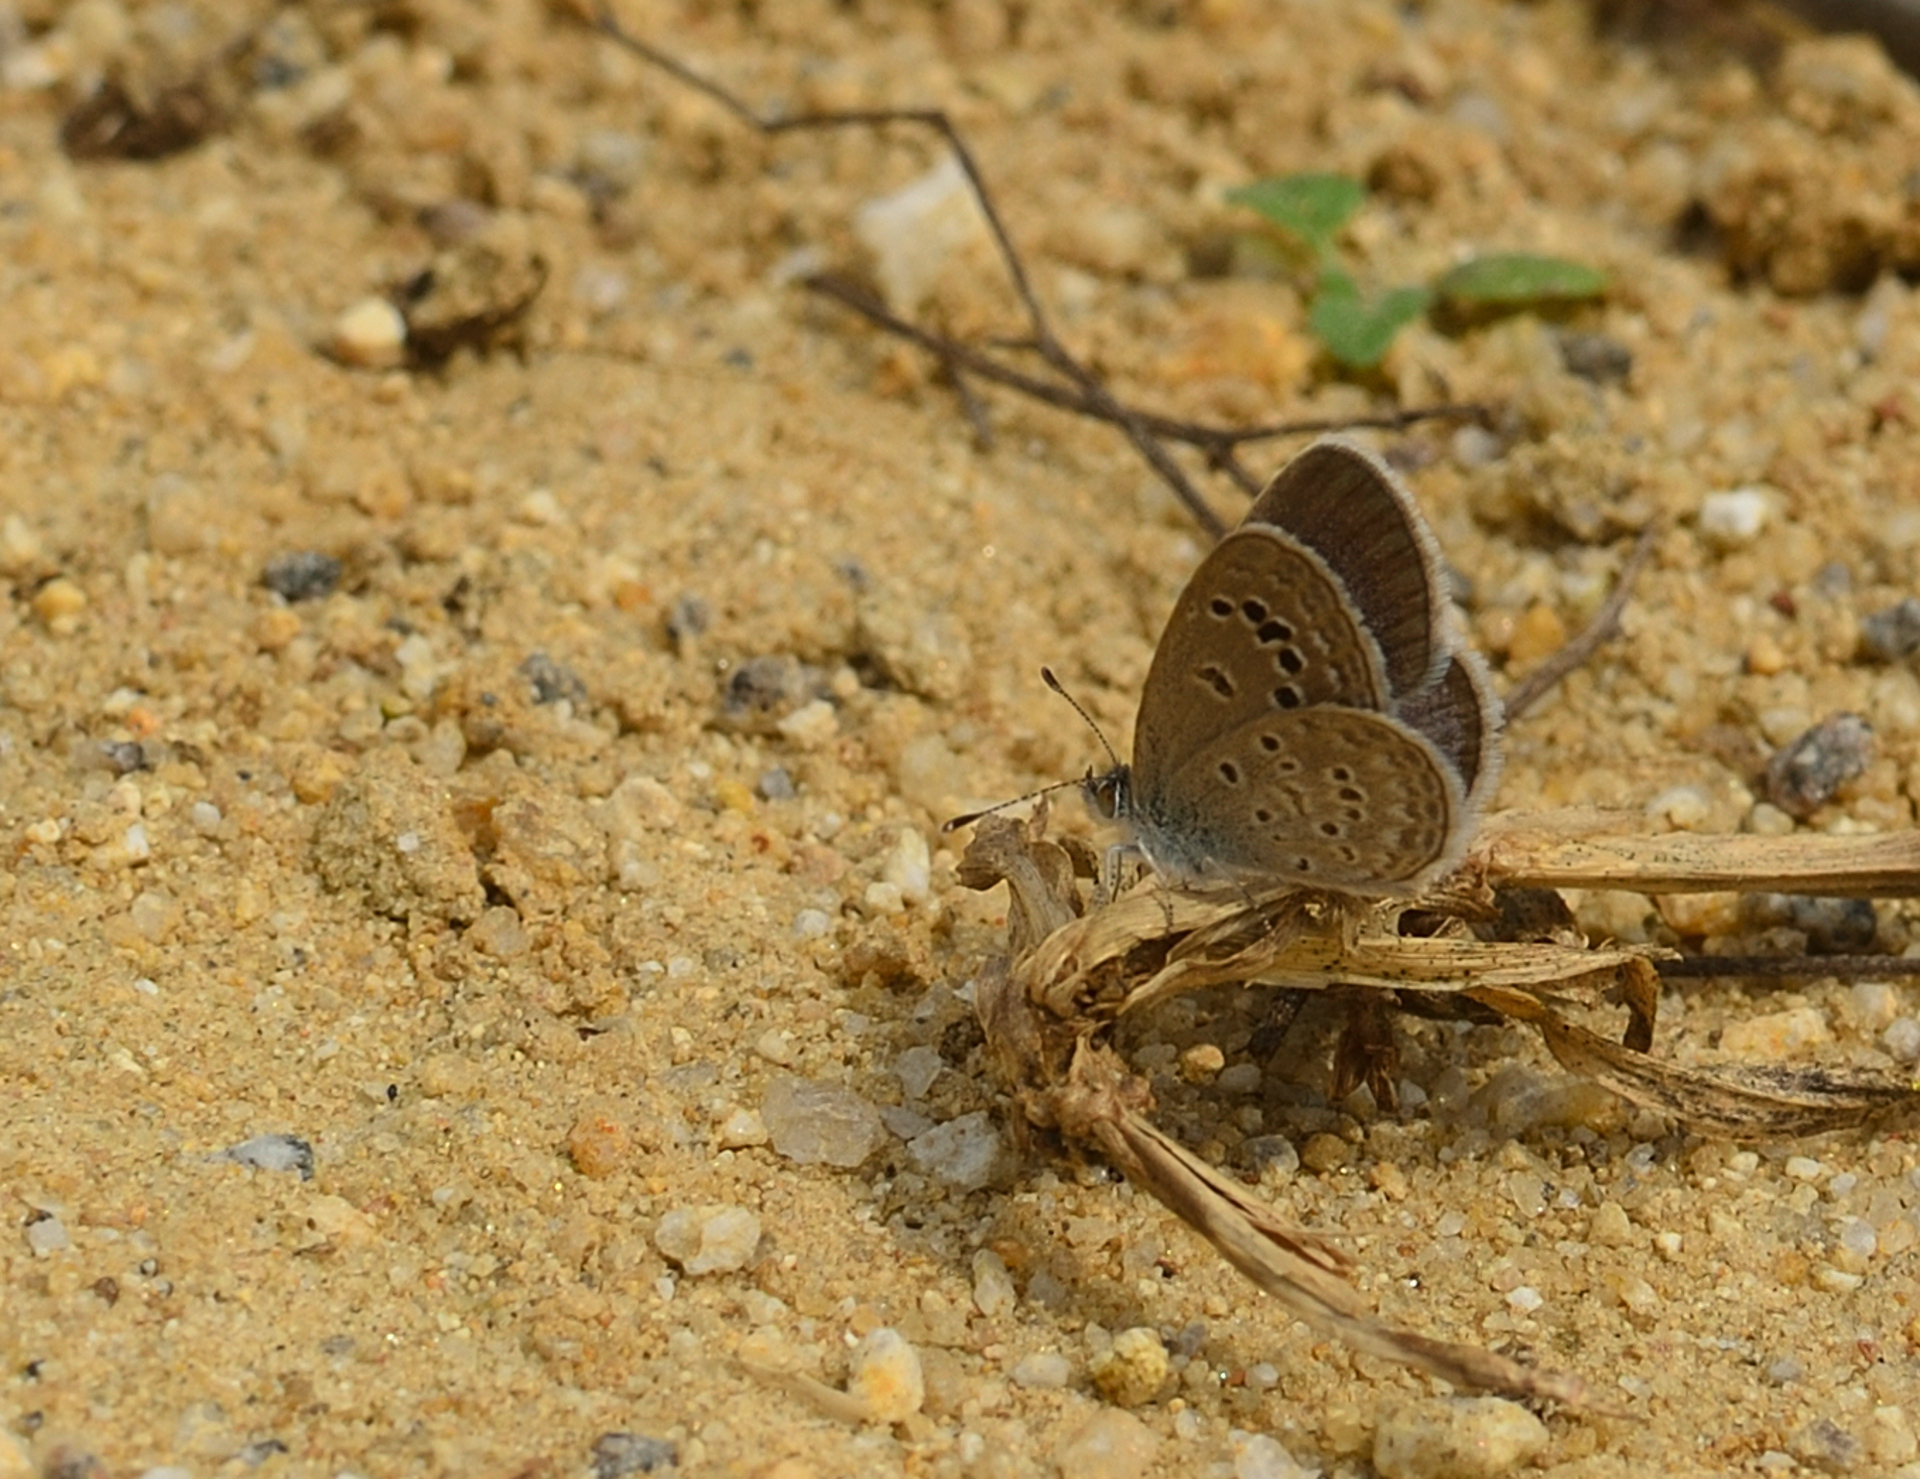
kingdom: Animalia
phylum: Arthropoda
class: Insecta
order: Lepidoptera
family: Lycaenidae
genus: Zizina
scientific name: Zizina otis
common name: Lesser grass blue
